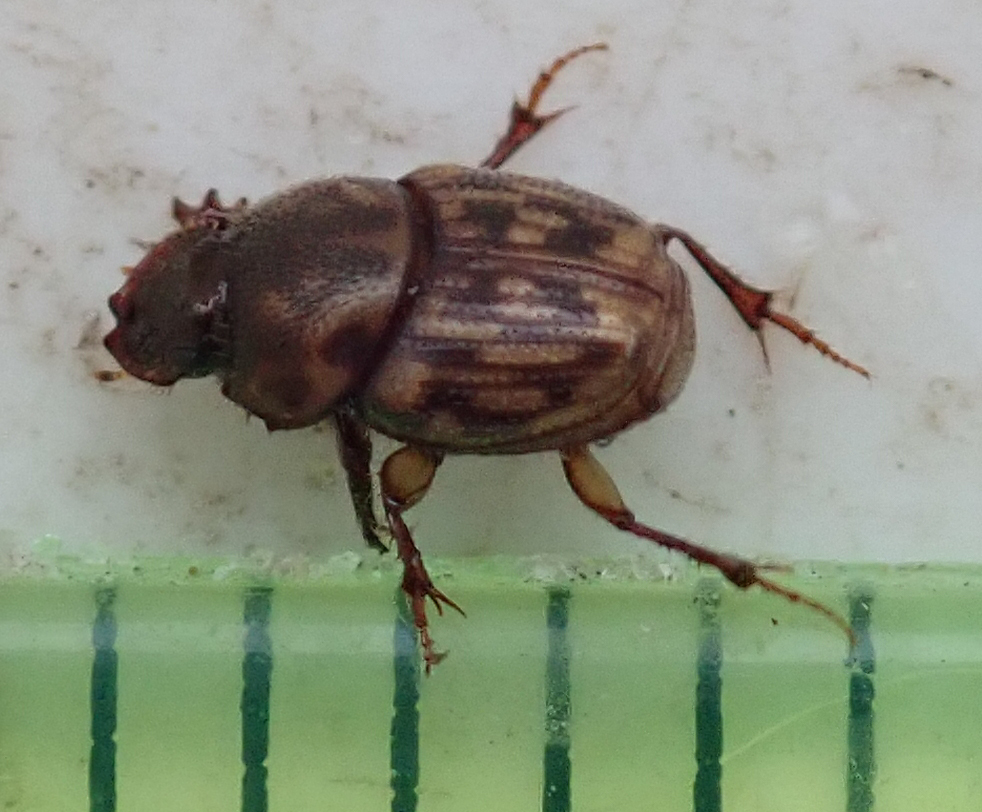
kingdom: Animalia
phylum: Arthropoda
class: Insecta
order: Coleoptera
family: Scarabaeidae
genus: Onthophagus
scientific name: Onthophagus variegatus
